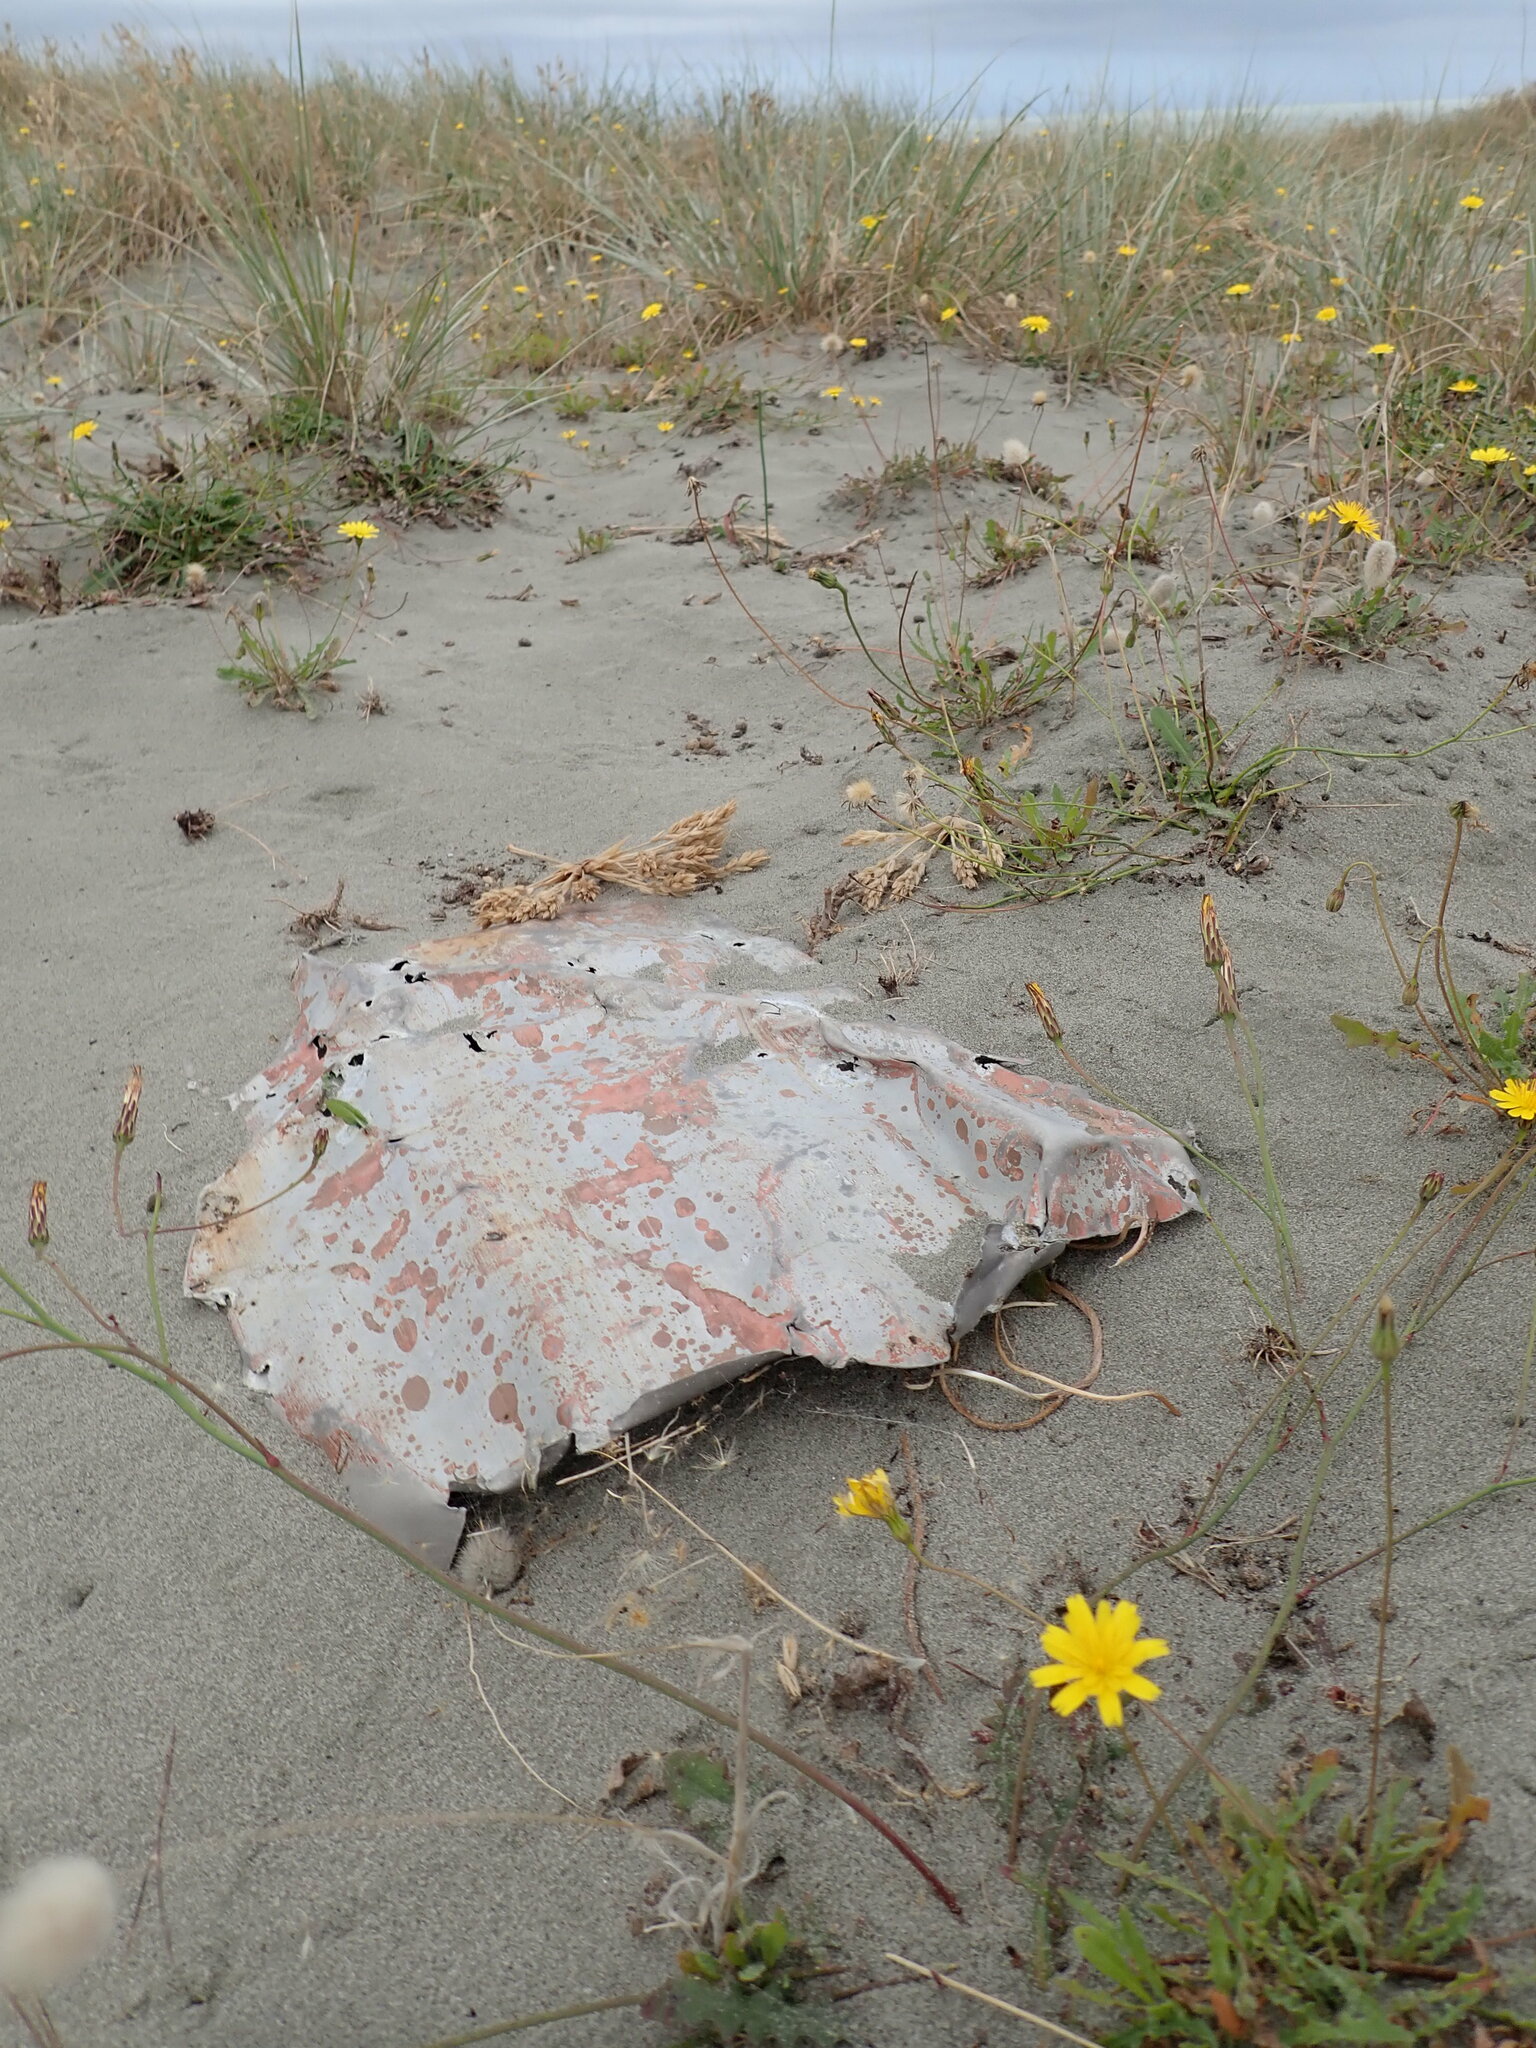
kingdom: Animalia
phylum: Arthropoda
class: Arachnida
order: Araneae
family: Theridiidae
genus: Latrodectus
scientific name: Latrodectus katipo
